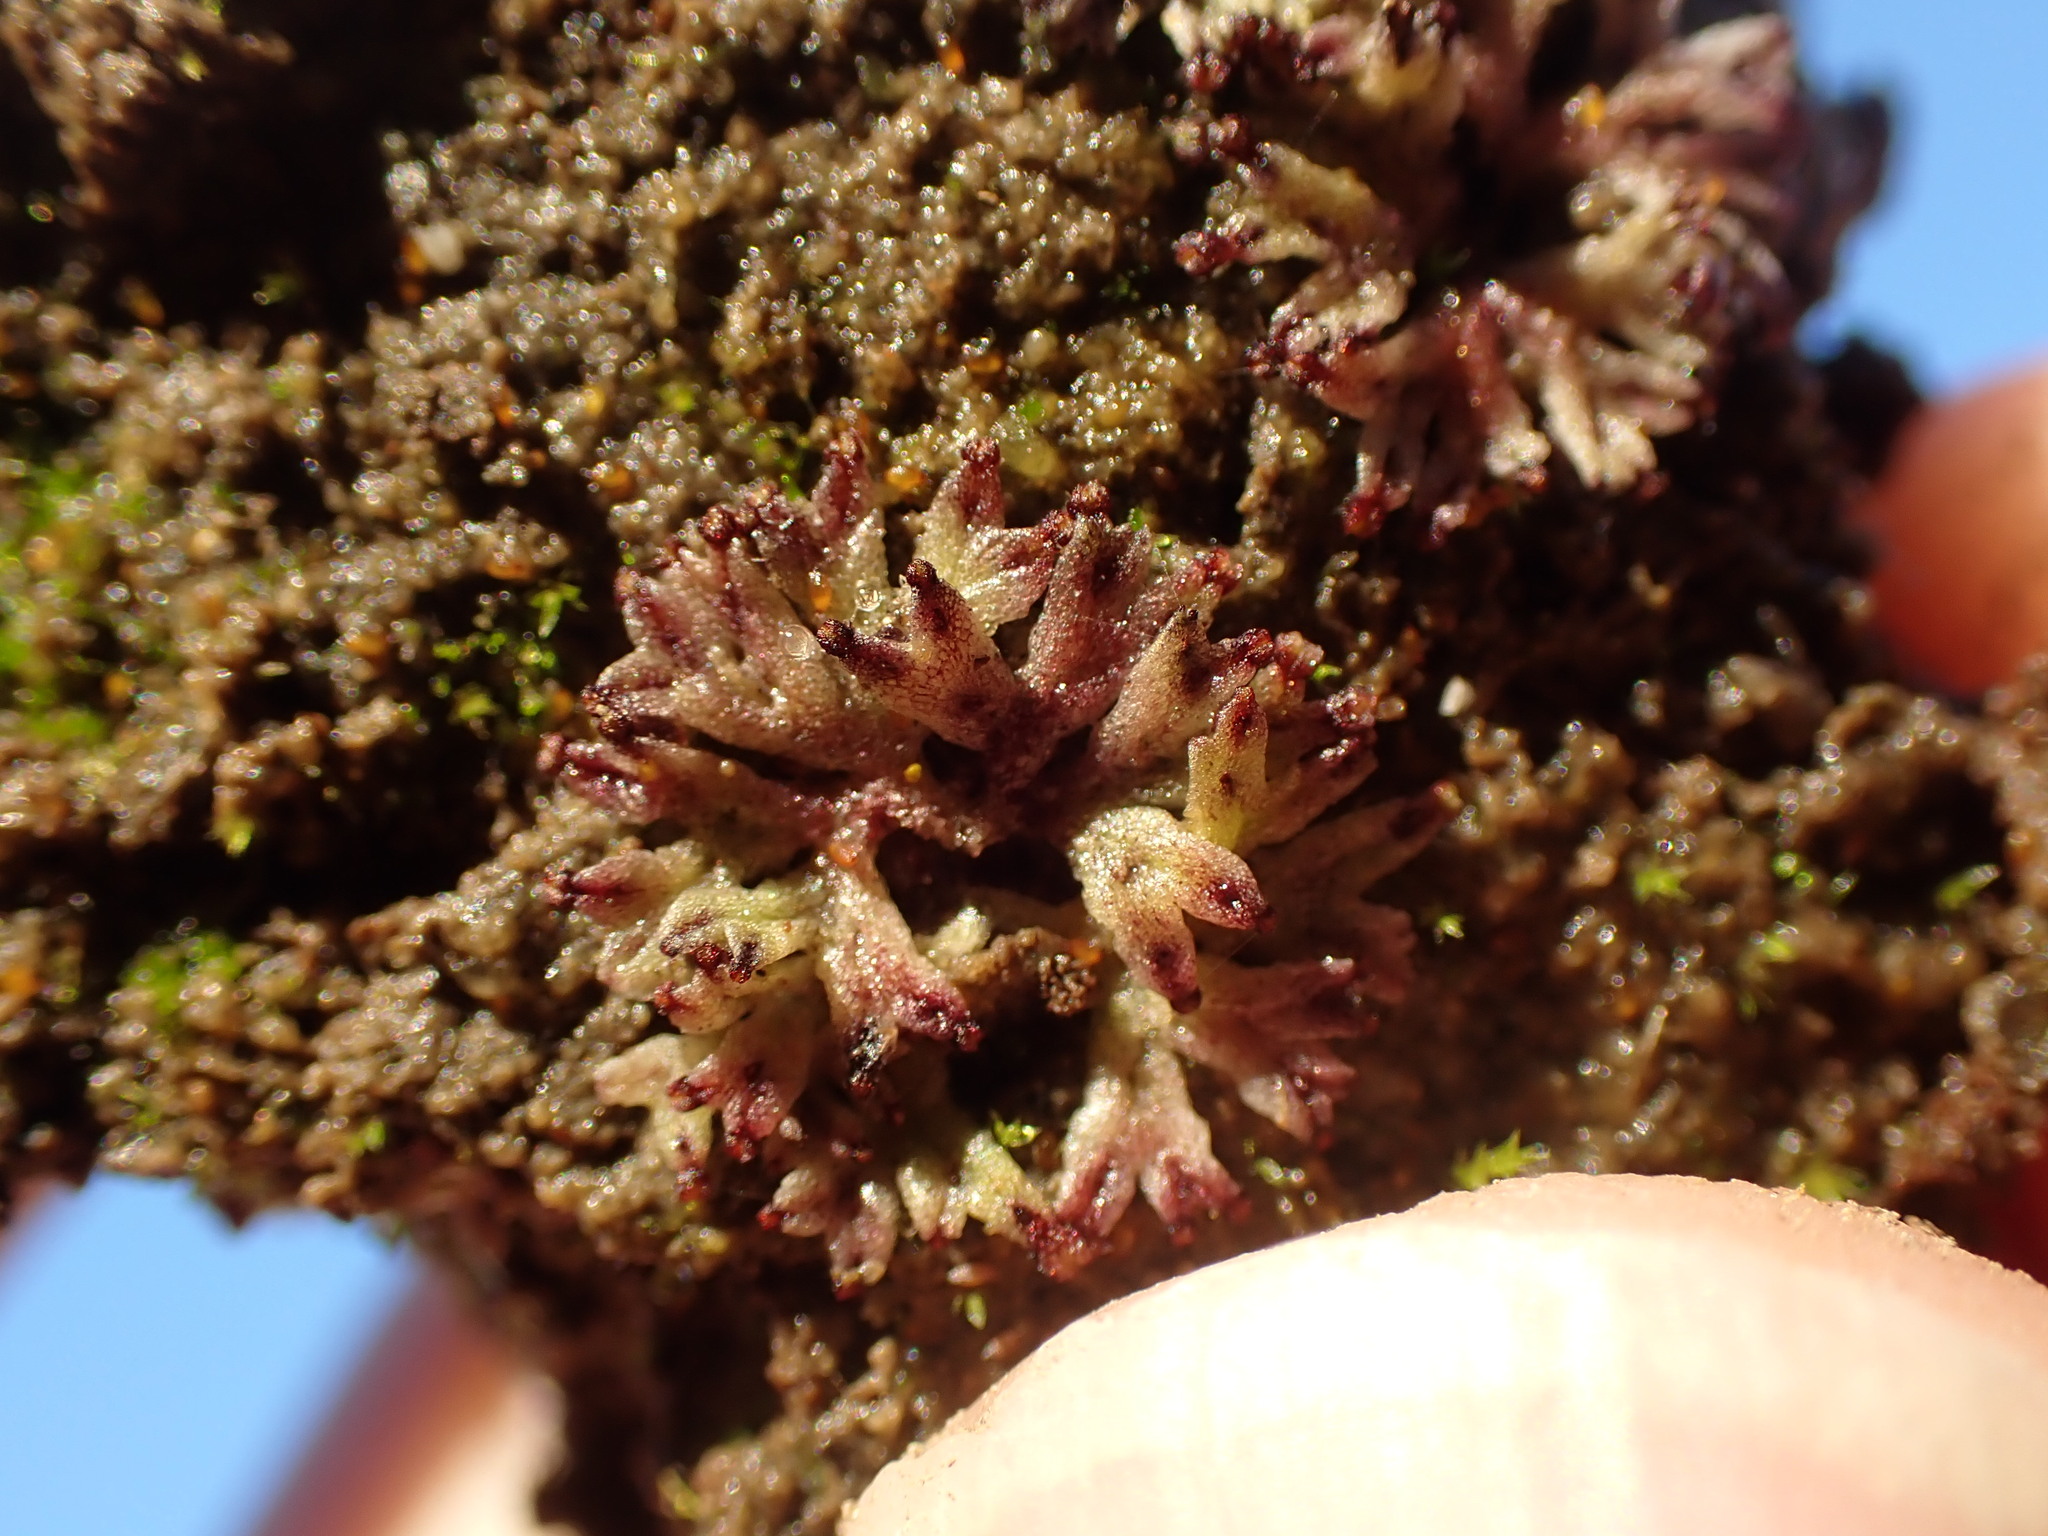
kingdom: Plantae
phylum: Marchantiophyta
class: Marchantiopsida
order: Marchantiales
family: Ricciaceae
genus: Riccia
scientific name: Riccia huebeneriana
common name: Violet crystalwort
